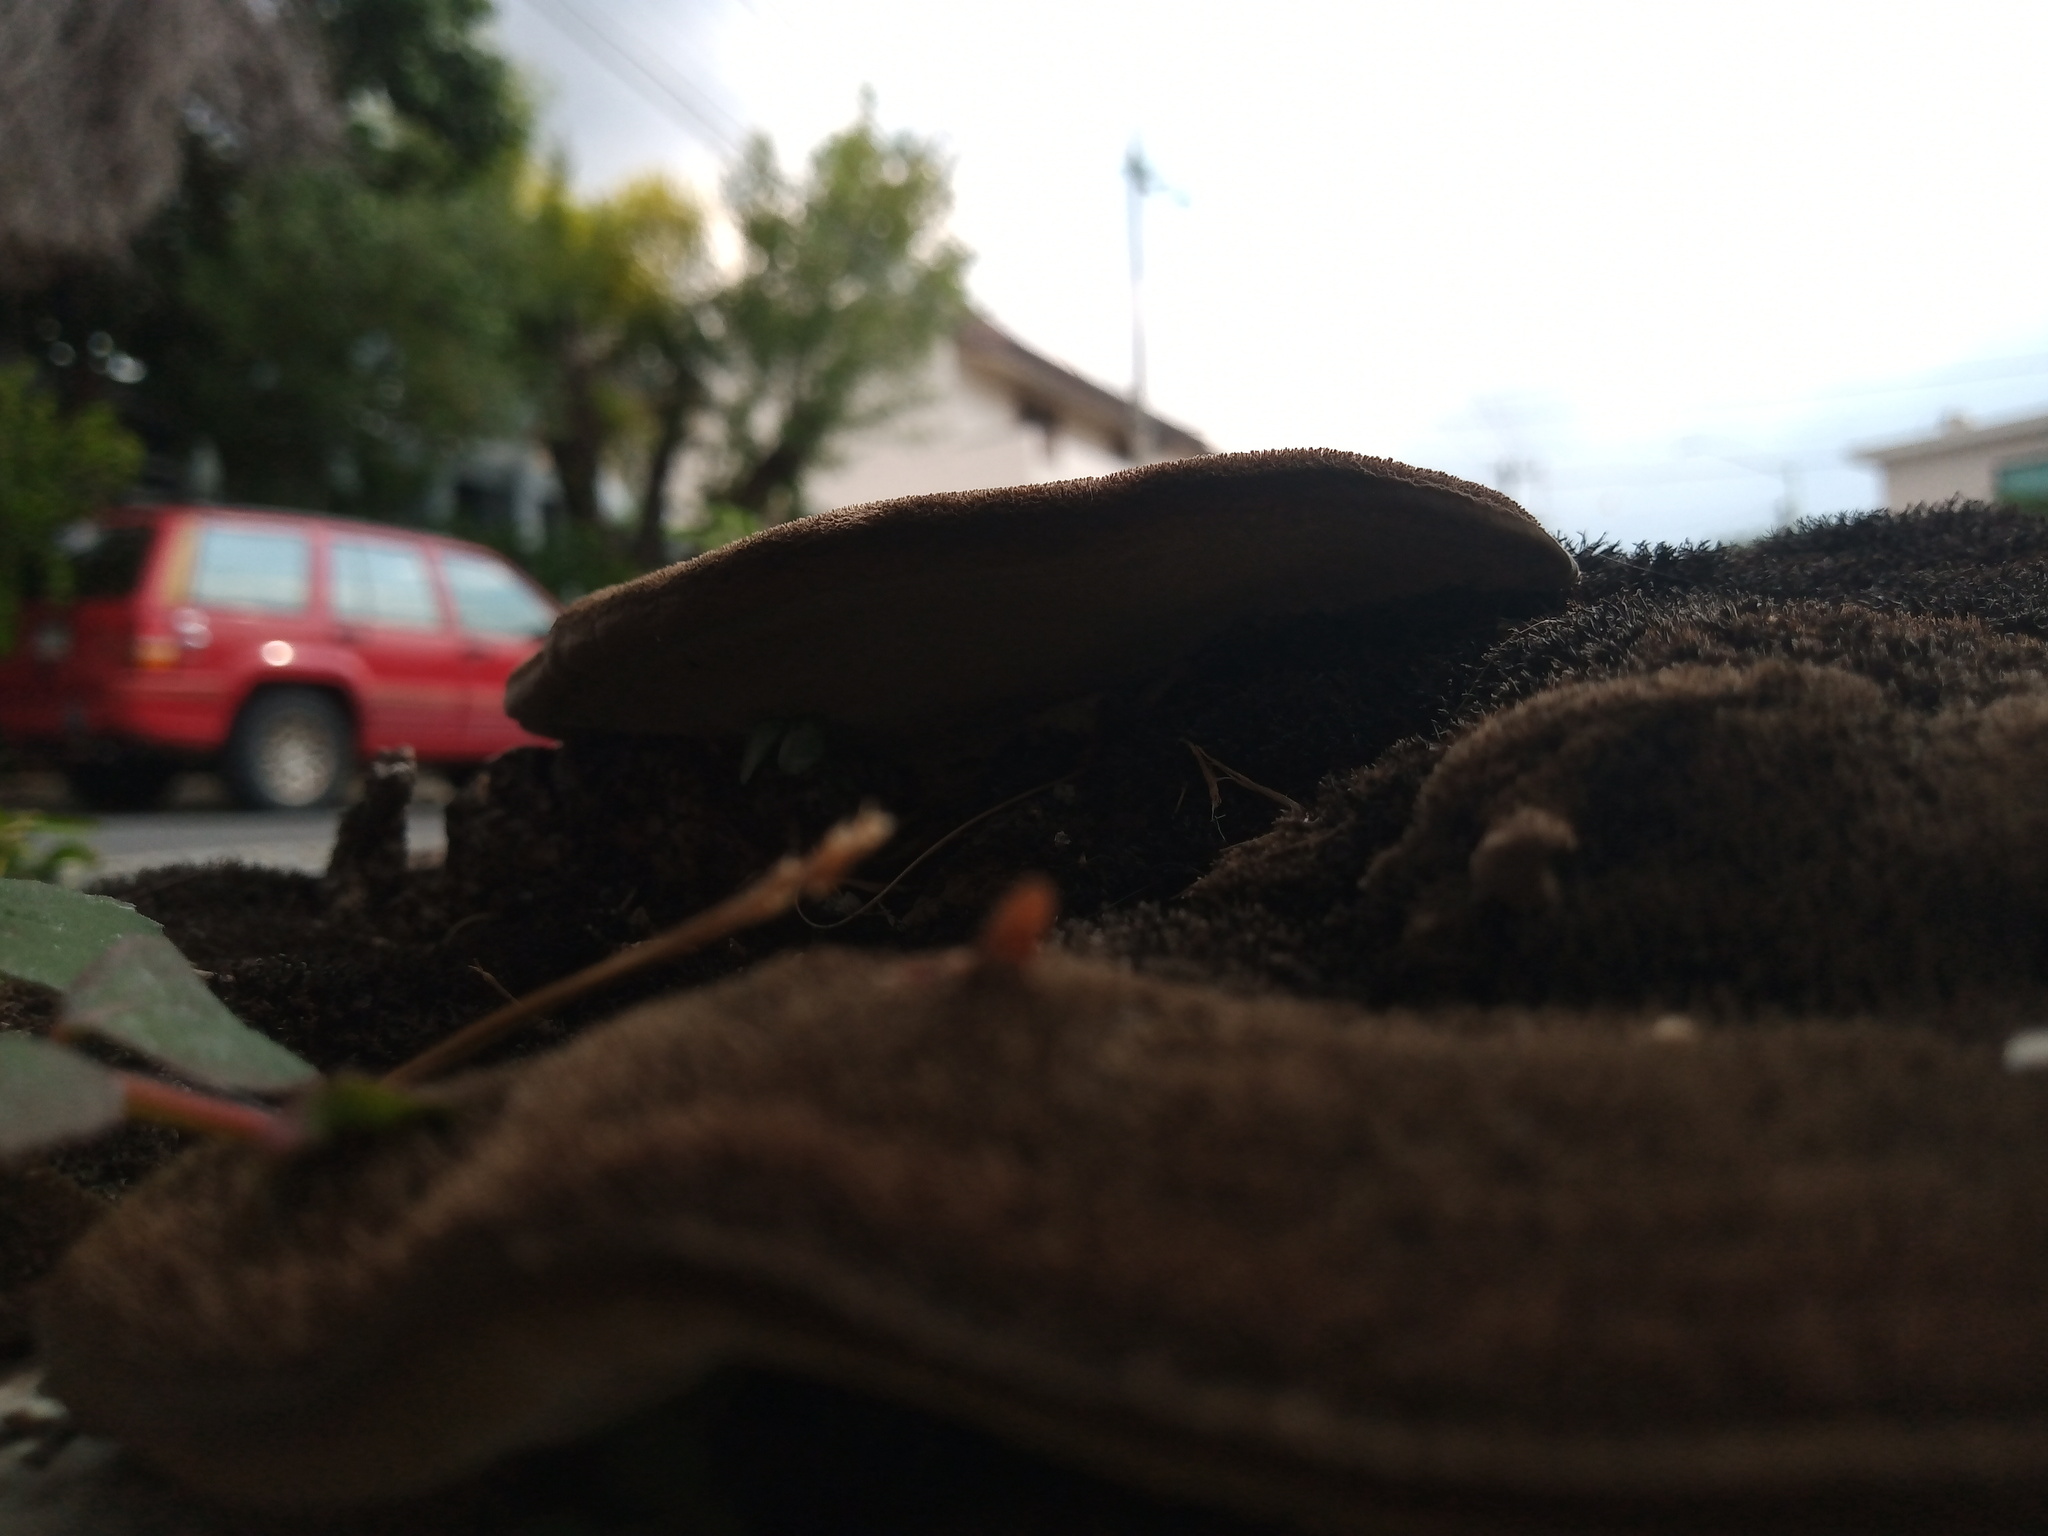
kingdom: Fungi
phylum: Basidiomycota
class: Agaricomycetes
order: Polyporales
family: Cerrenaceae
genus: Cerrena
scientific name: Cerrena hydnoides
